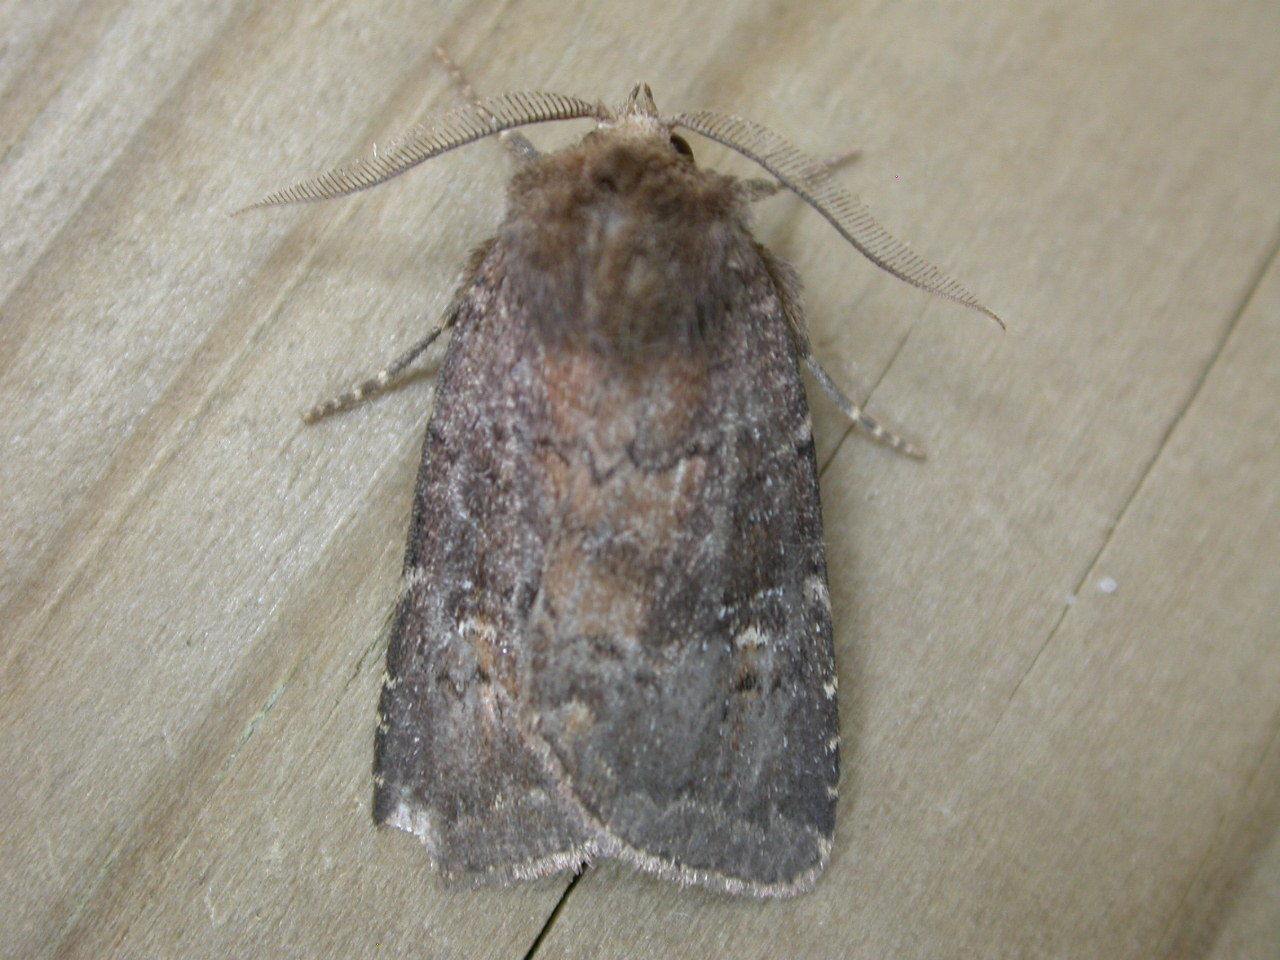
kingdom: Animalia
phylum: Arthropoda
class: Insecta
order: Lepidoptera
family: Noctuidae
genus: Charanyca
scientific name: Charanyca ferruginea
